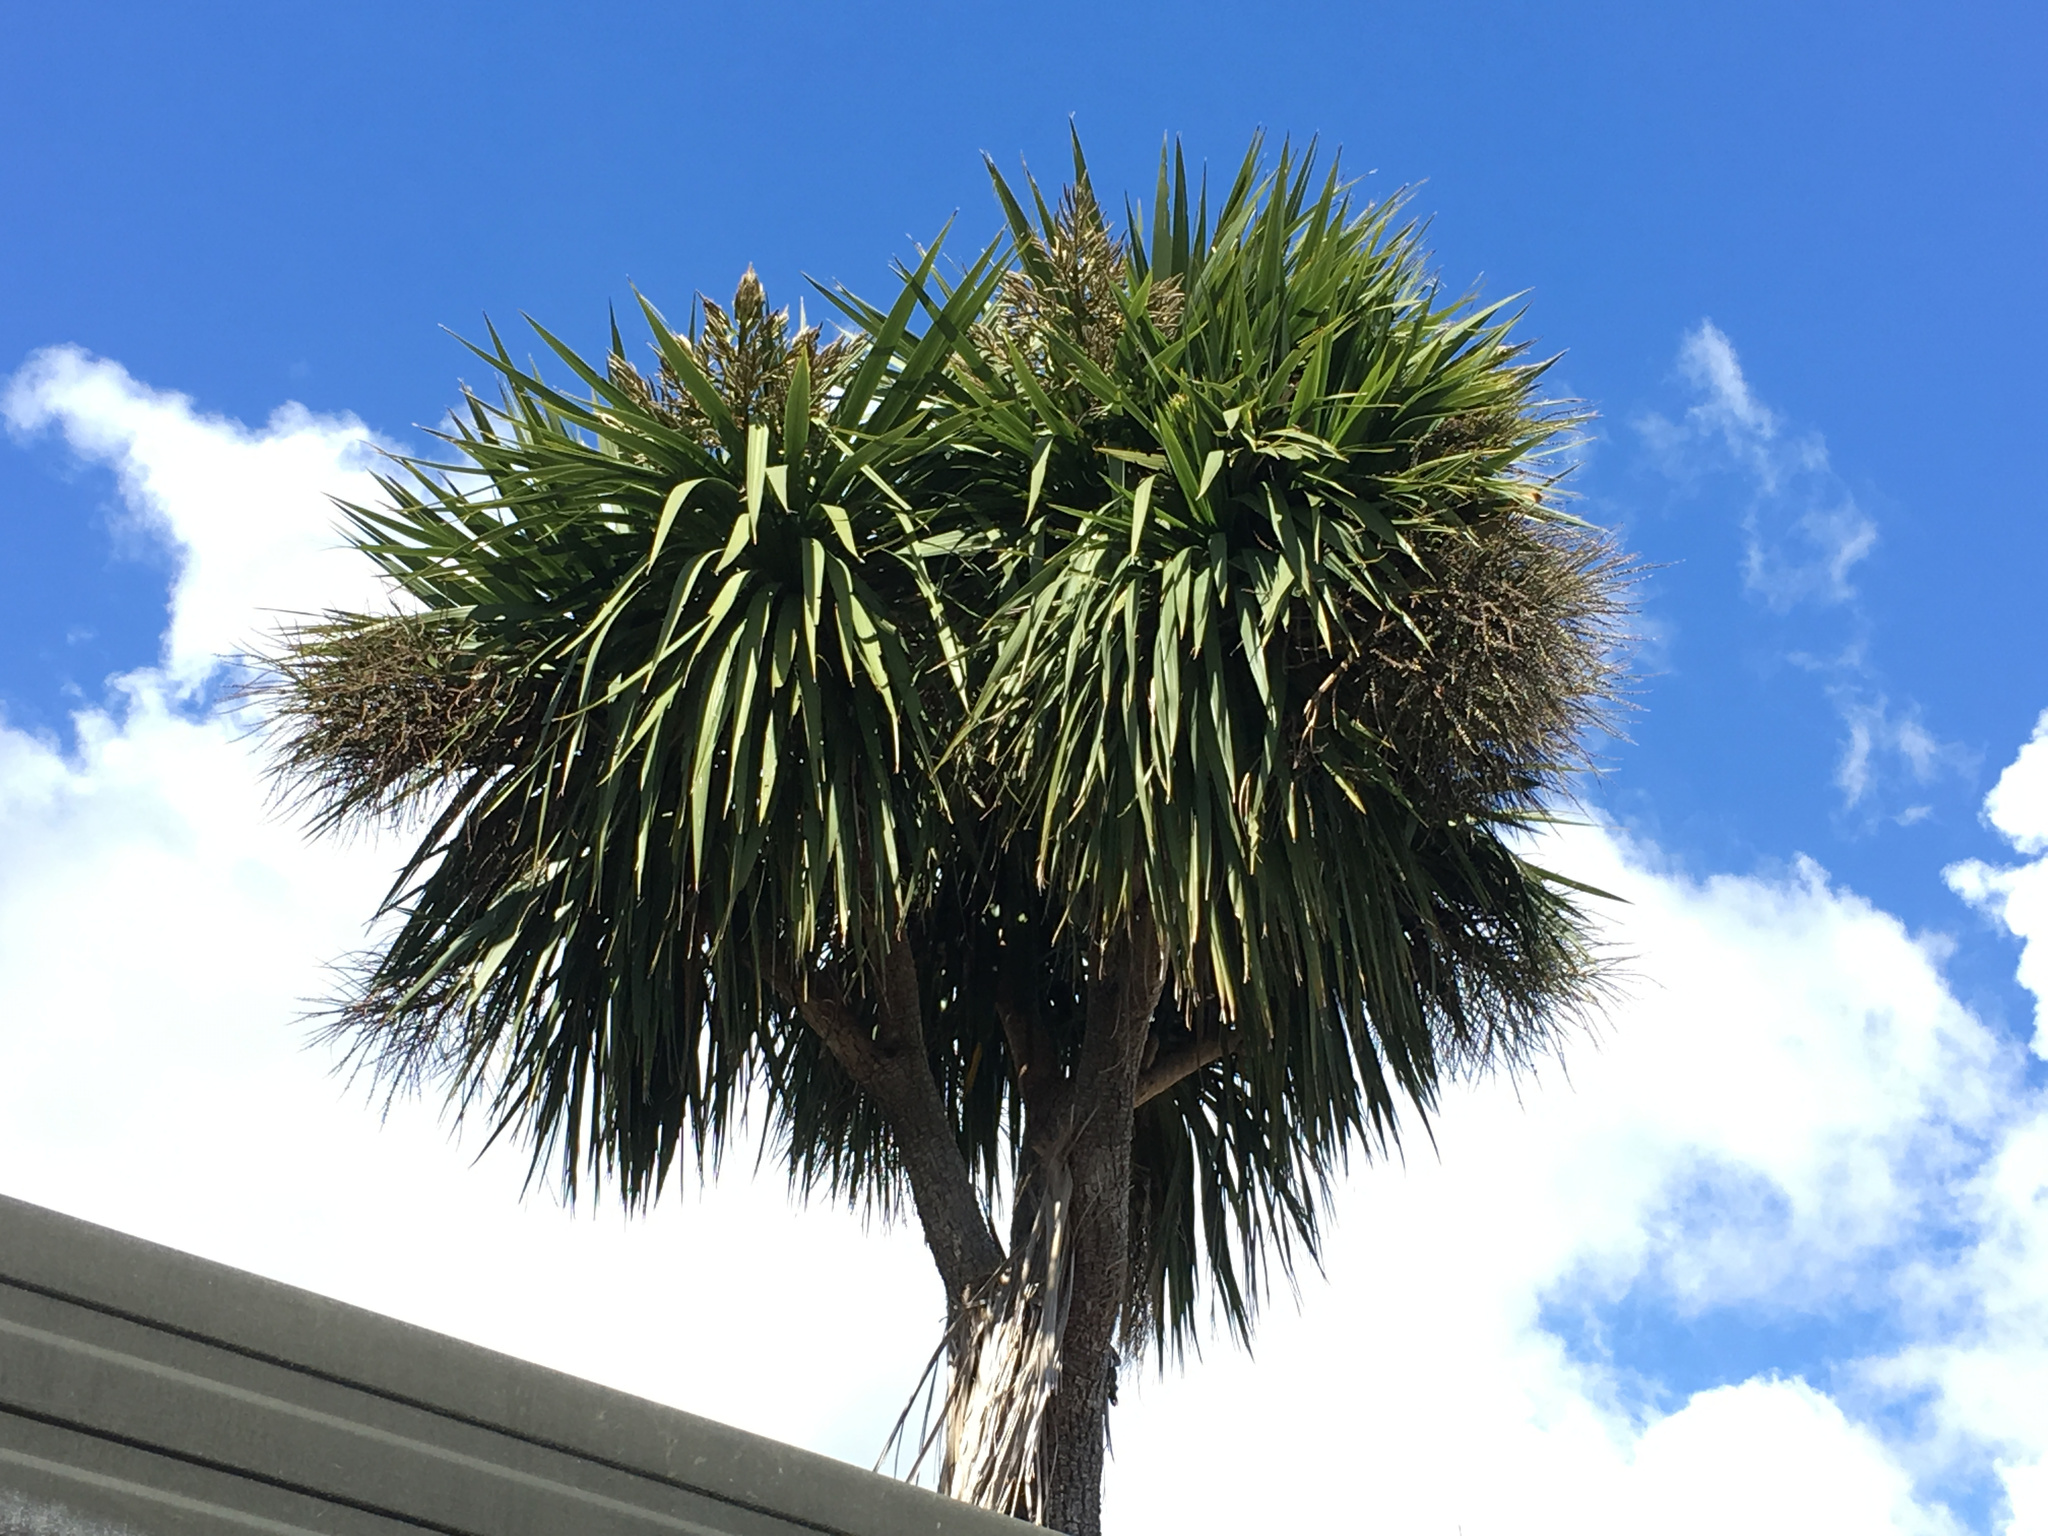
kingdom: Plantae
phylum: Tracheophyta
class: Liliopsida
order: Asparagales
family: Asparagaceae
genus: Cordyline
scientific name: Cordyline australis
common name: Cabbage-palm
